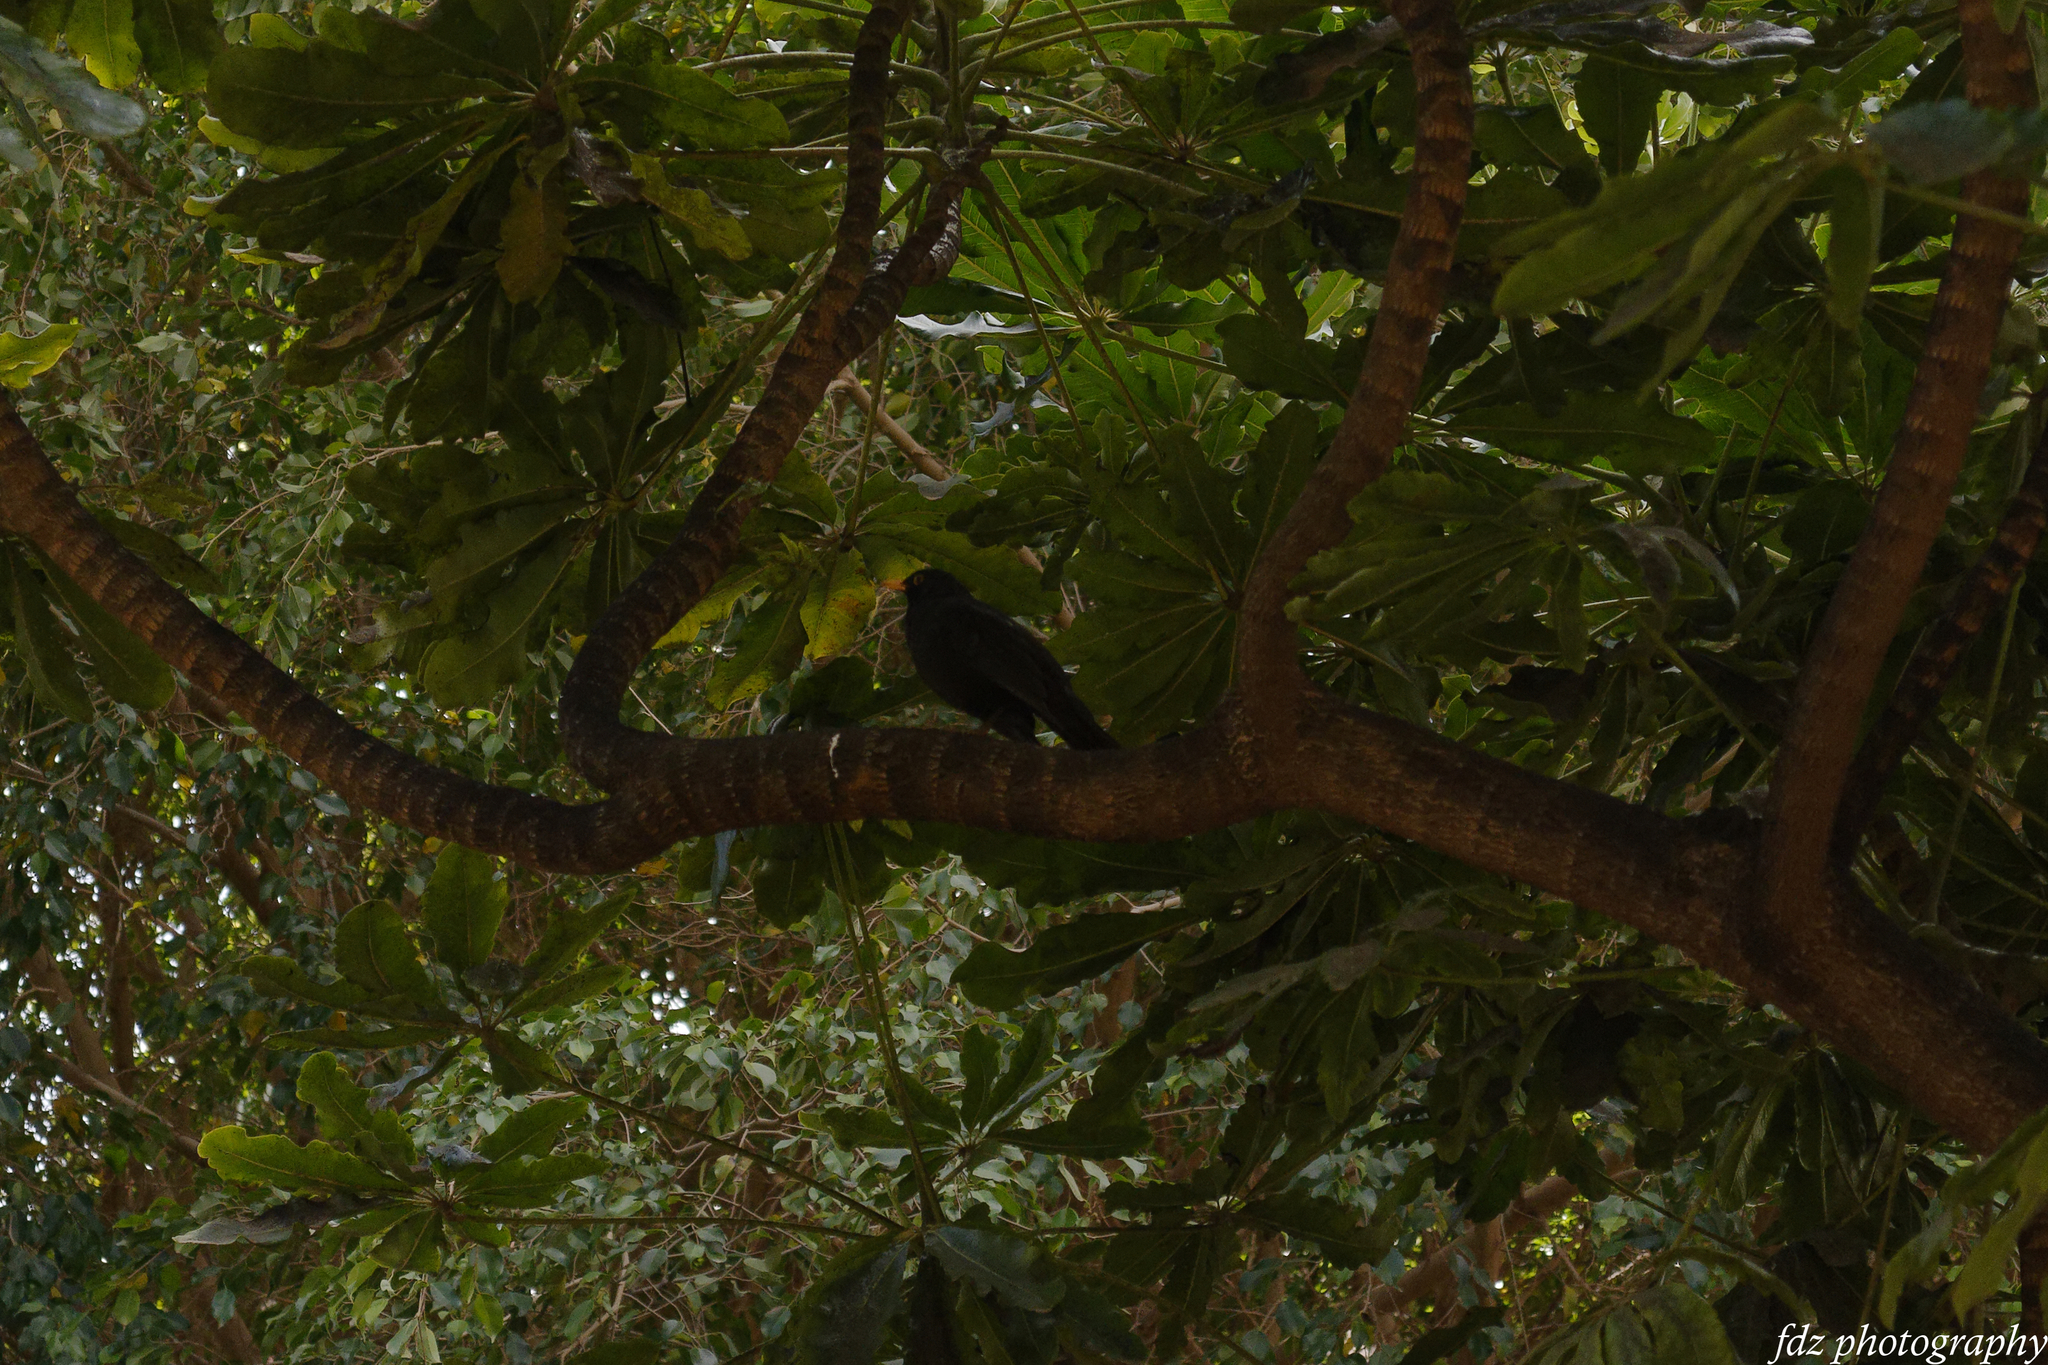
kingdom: Animalia
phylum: Chordata
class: Aves
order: Passeriformes
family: Turdidae
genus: Turdus
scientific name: Turdus merula
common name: Common blackbird
